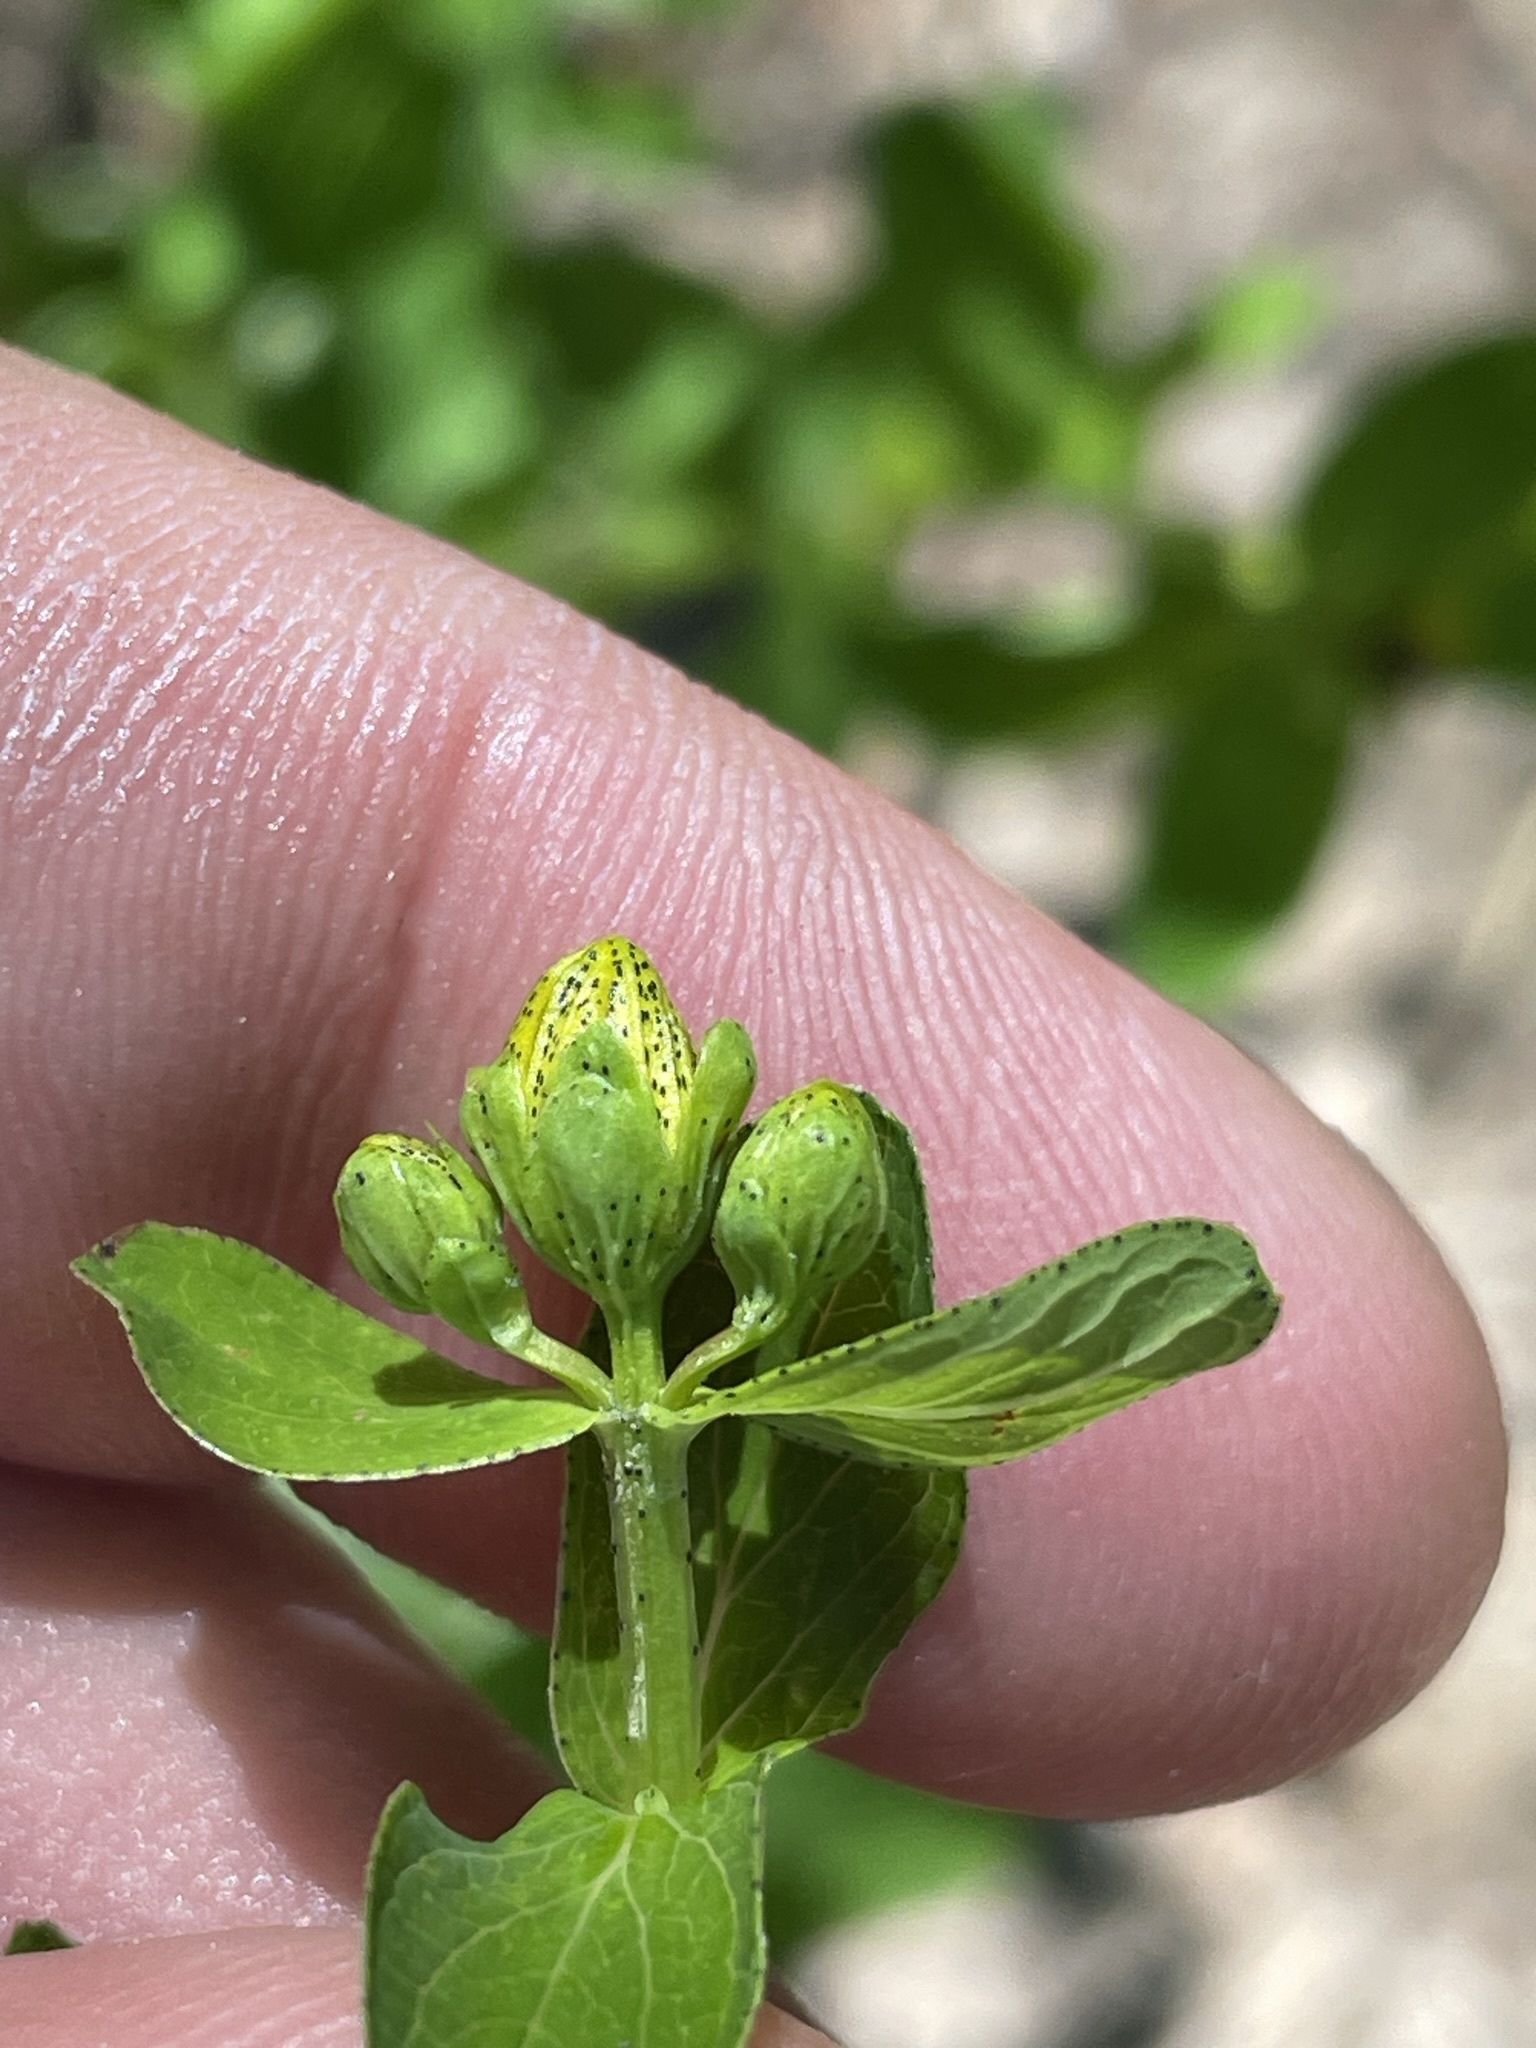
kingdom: Plantae
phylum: Tracheophyta
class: Magnoliopsida
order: Malpighiales
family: Hypericaceae
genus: Hypericum
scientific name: Hypericum maculatum
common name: Imperforate st. john's-wort
